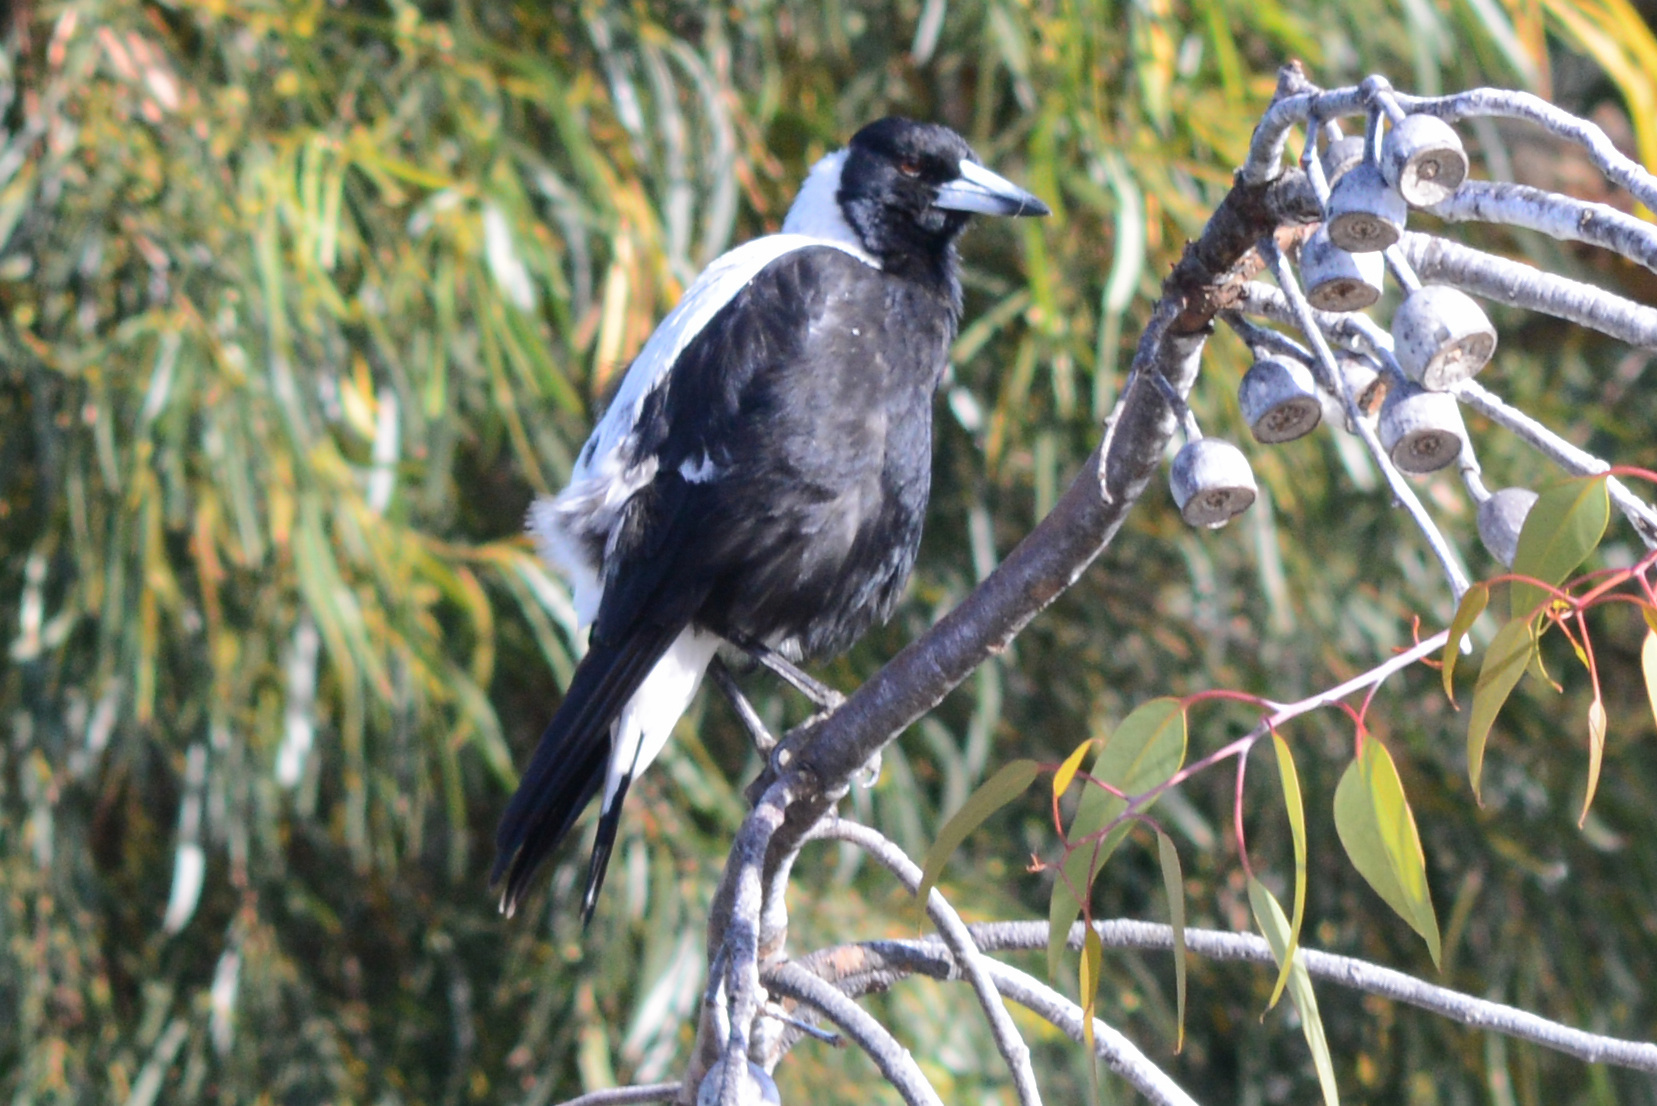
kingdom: Animalia
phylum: Chordata
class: Aves
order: Passeriformes
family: Cracticidae
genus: Gymnorhina
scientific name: Gymnorhina tibicen
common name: Australian magpie
